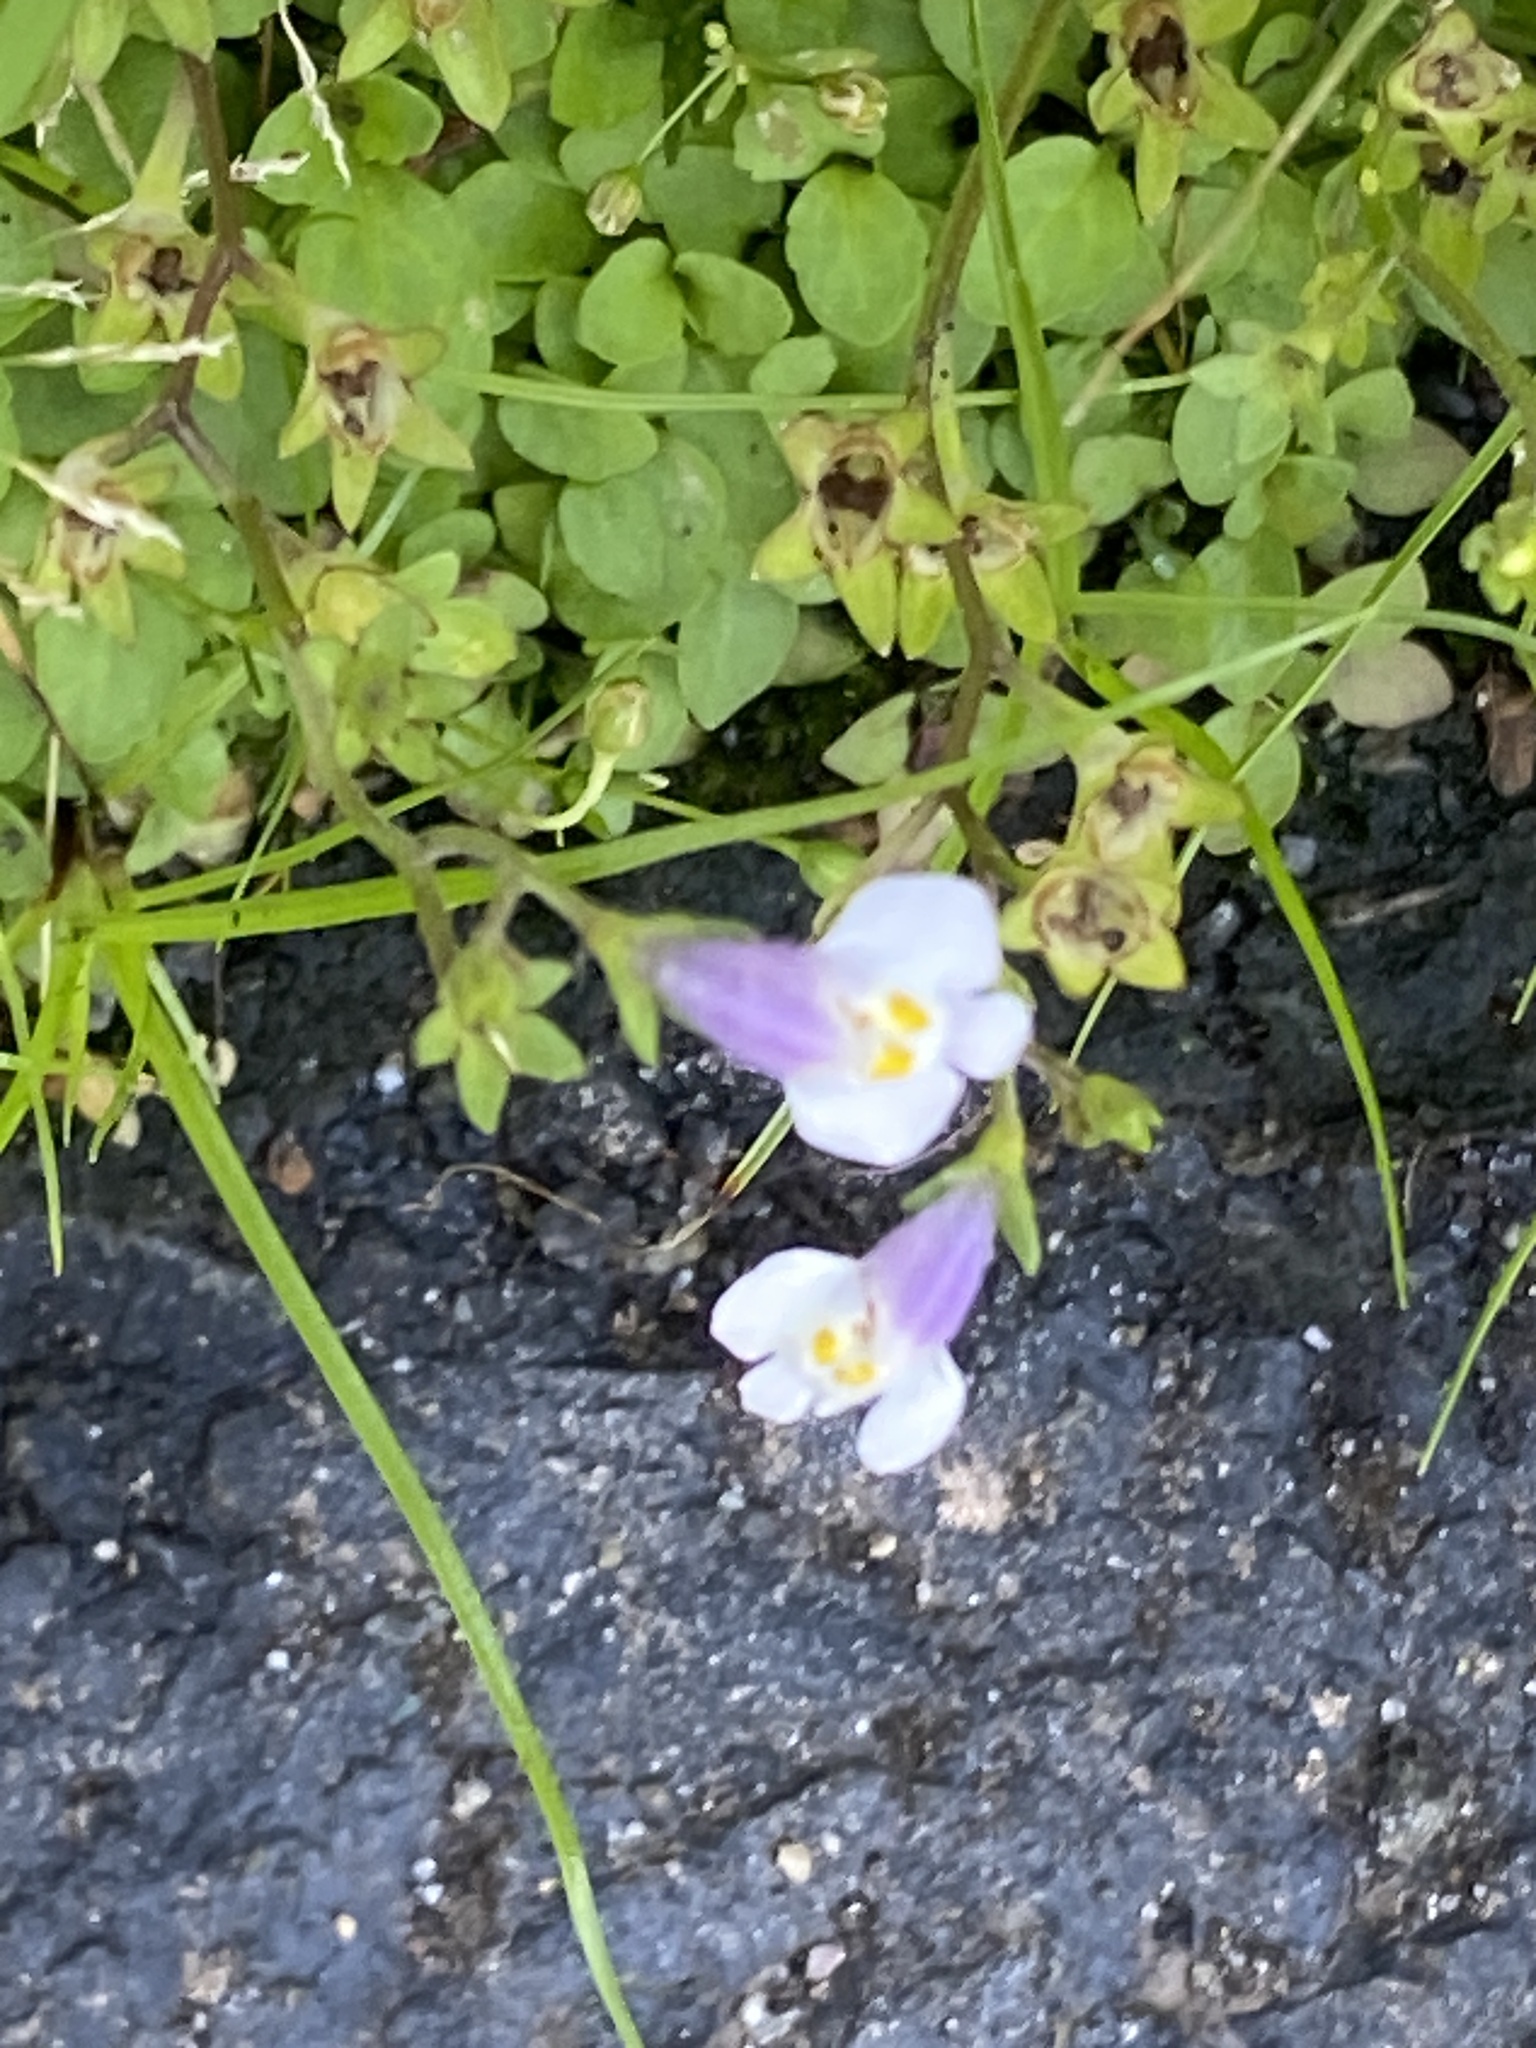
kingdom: Plantae
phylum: Tracheophyta
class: Magnoliopsida
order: Lamiales
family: Mazaceae
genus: Mazus
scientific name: Mazus pumilus
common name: Japanese mazus
